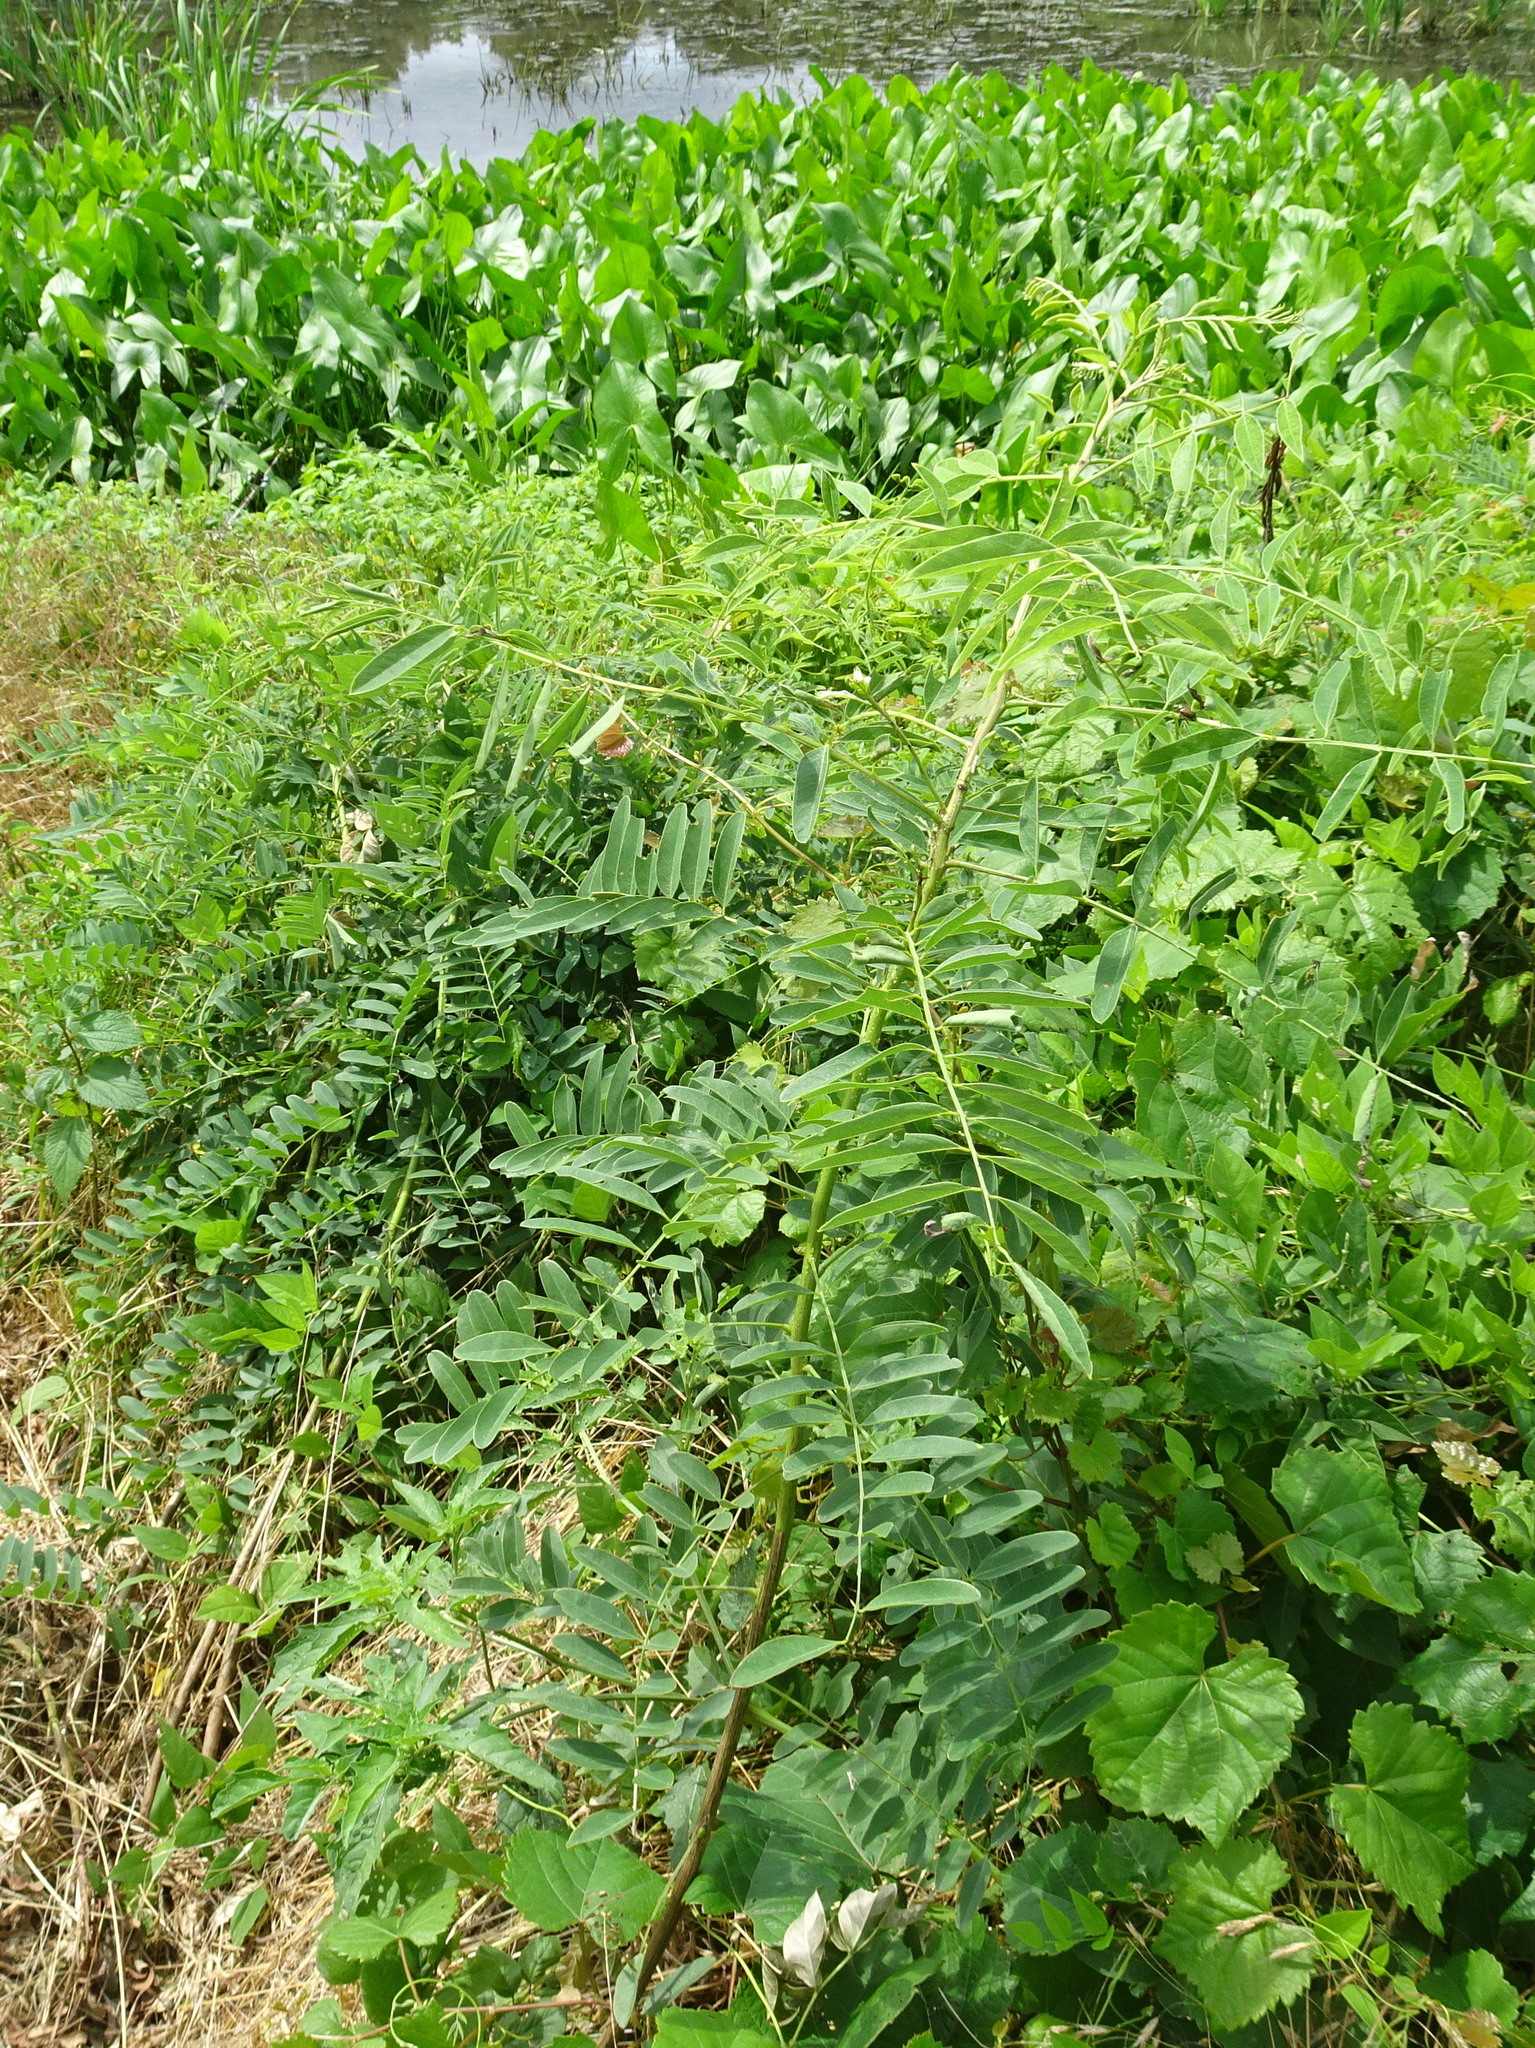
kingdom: Plantae
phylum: Tracheophyta
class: Magnoliopsida
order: Fabales
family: Fabaceae
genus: Amorpha
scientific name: Amorpha fruticosa
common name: False indigo
